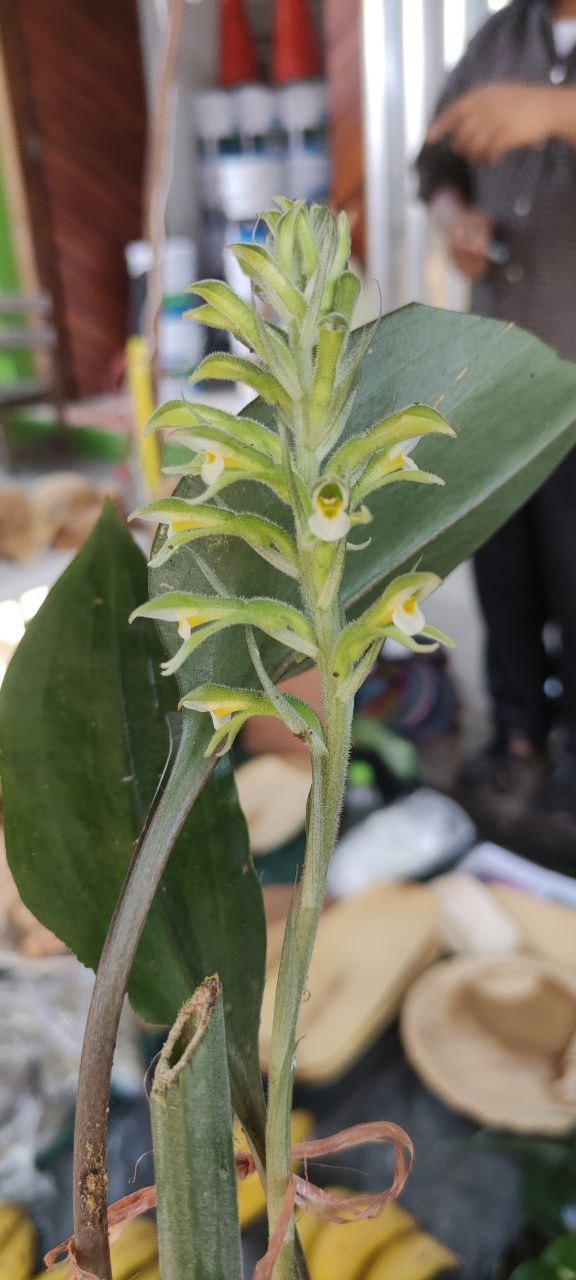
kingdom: Plantae
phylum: Tracheophyta
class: Liliopsida
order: Asparagales
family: Orchidaceae
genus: Pelexia
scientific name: Pelexia adnata
